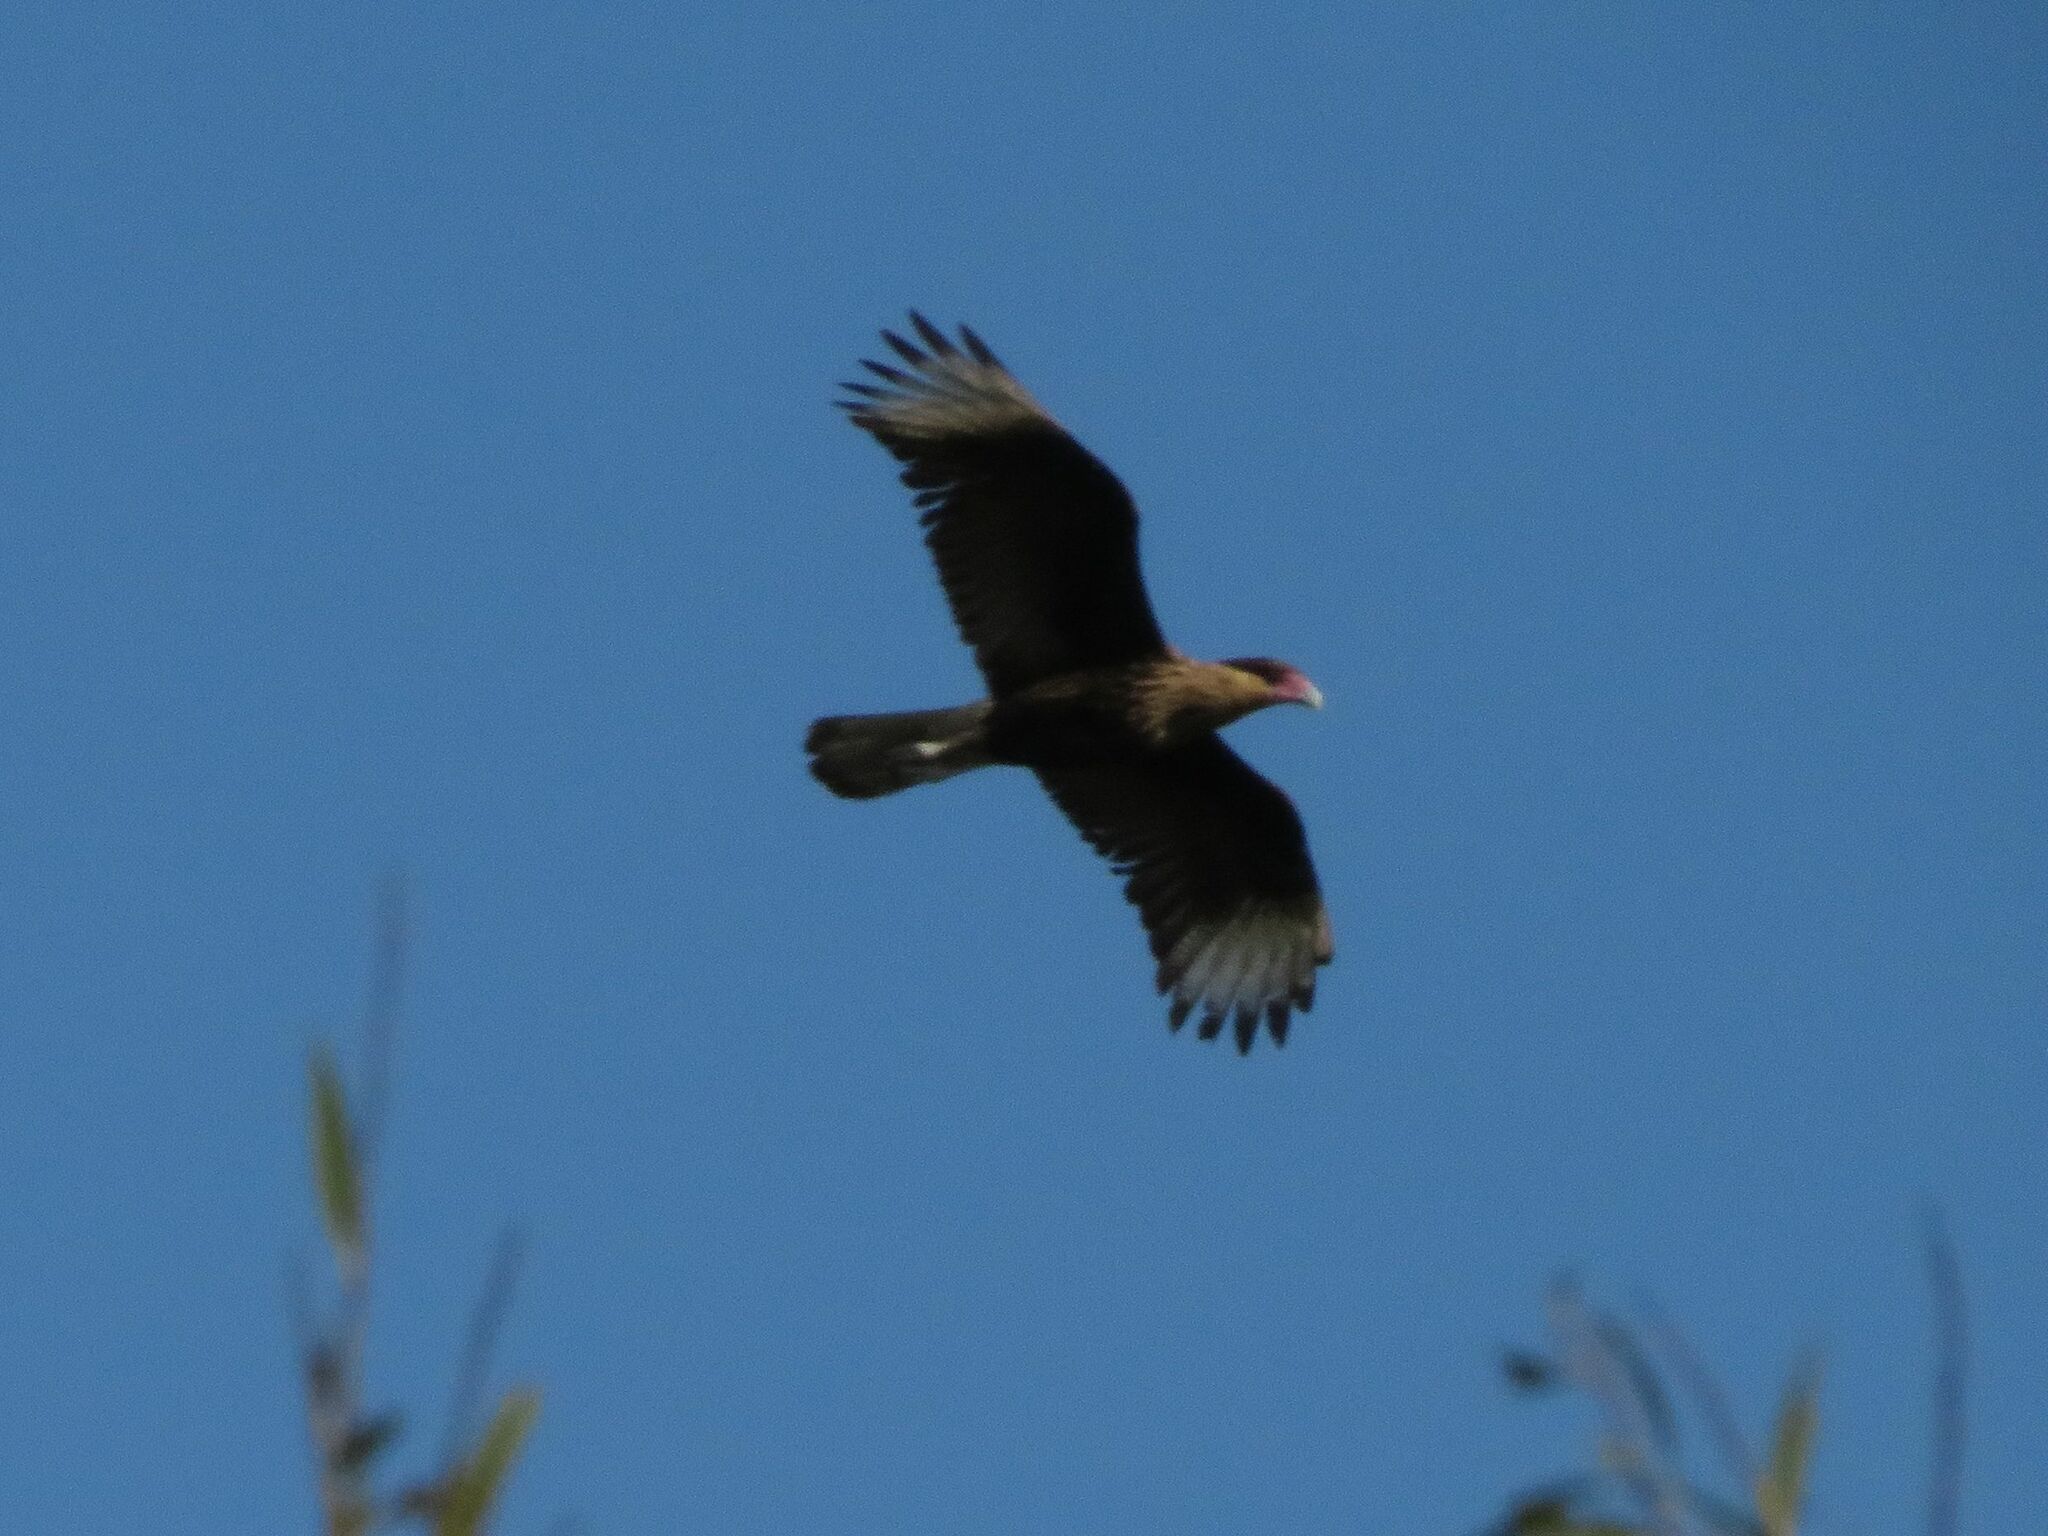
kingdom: Animalia
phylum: Chordata
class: Aves
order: Falconiformes
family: Falconidae
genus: Caracara
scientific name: Caracara plancus
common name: Southern caracara
